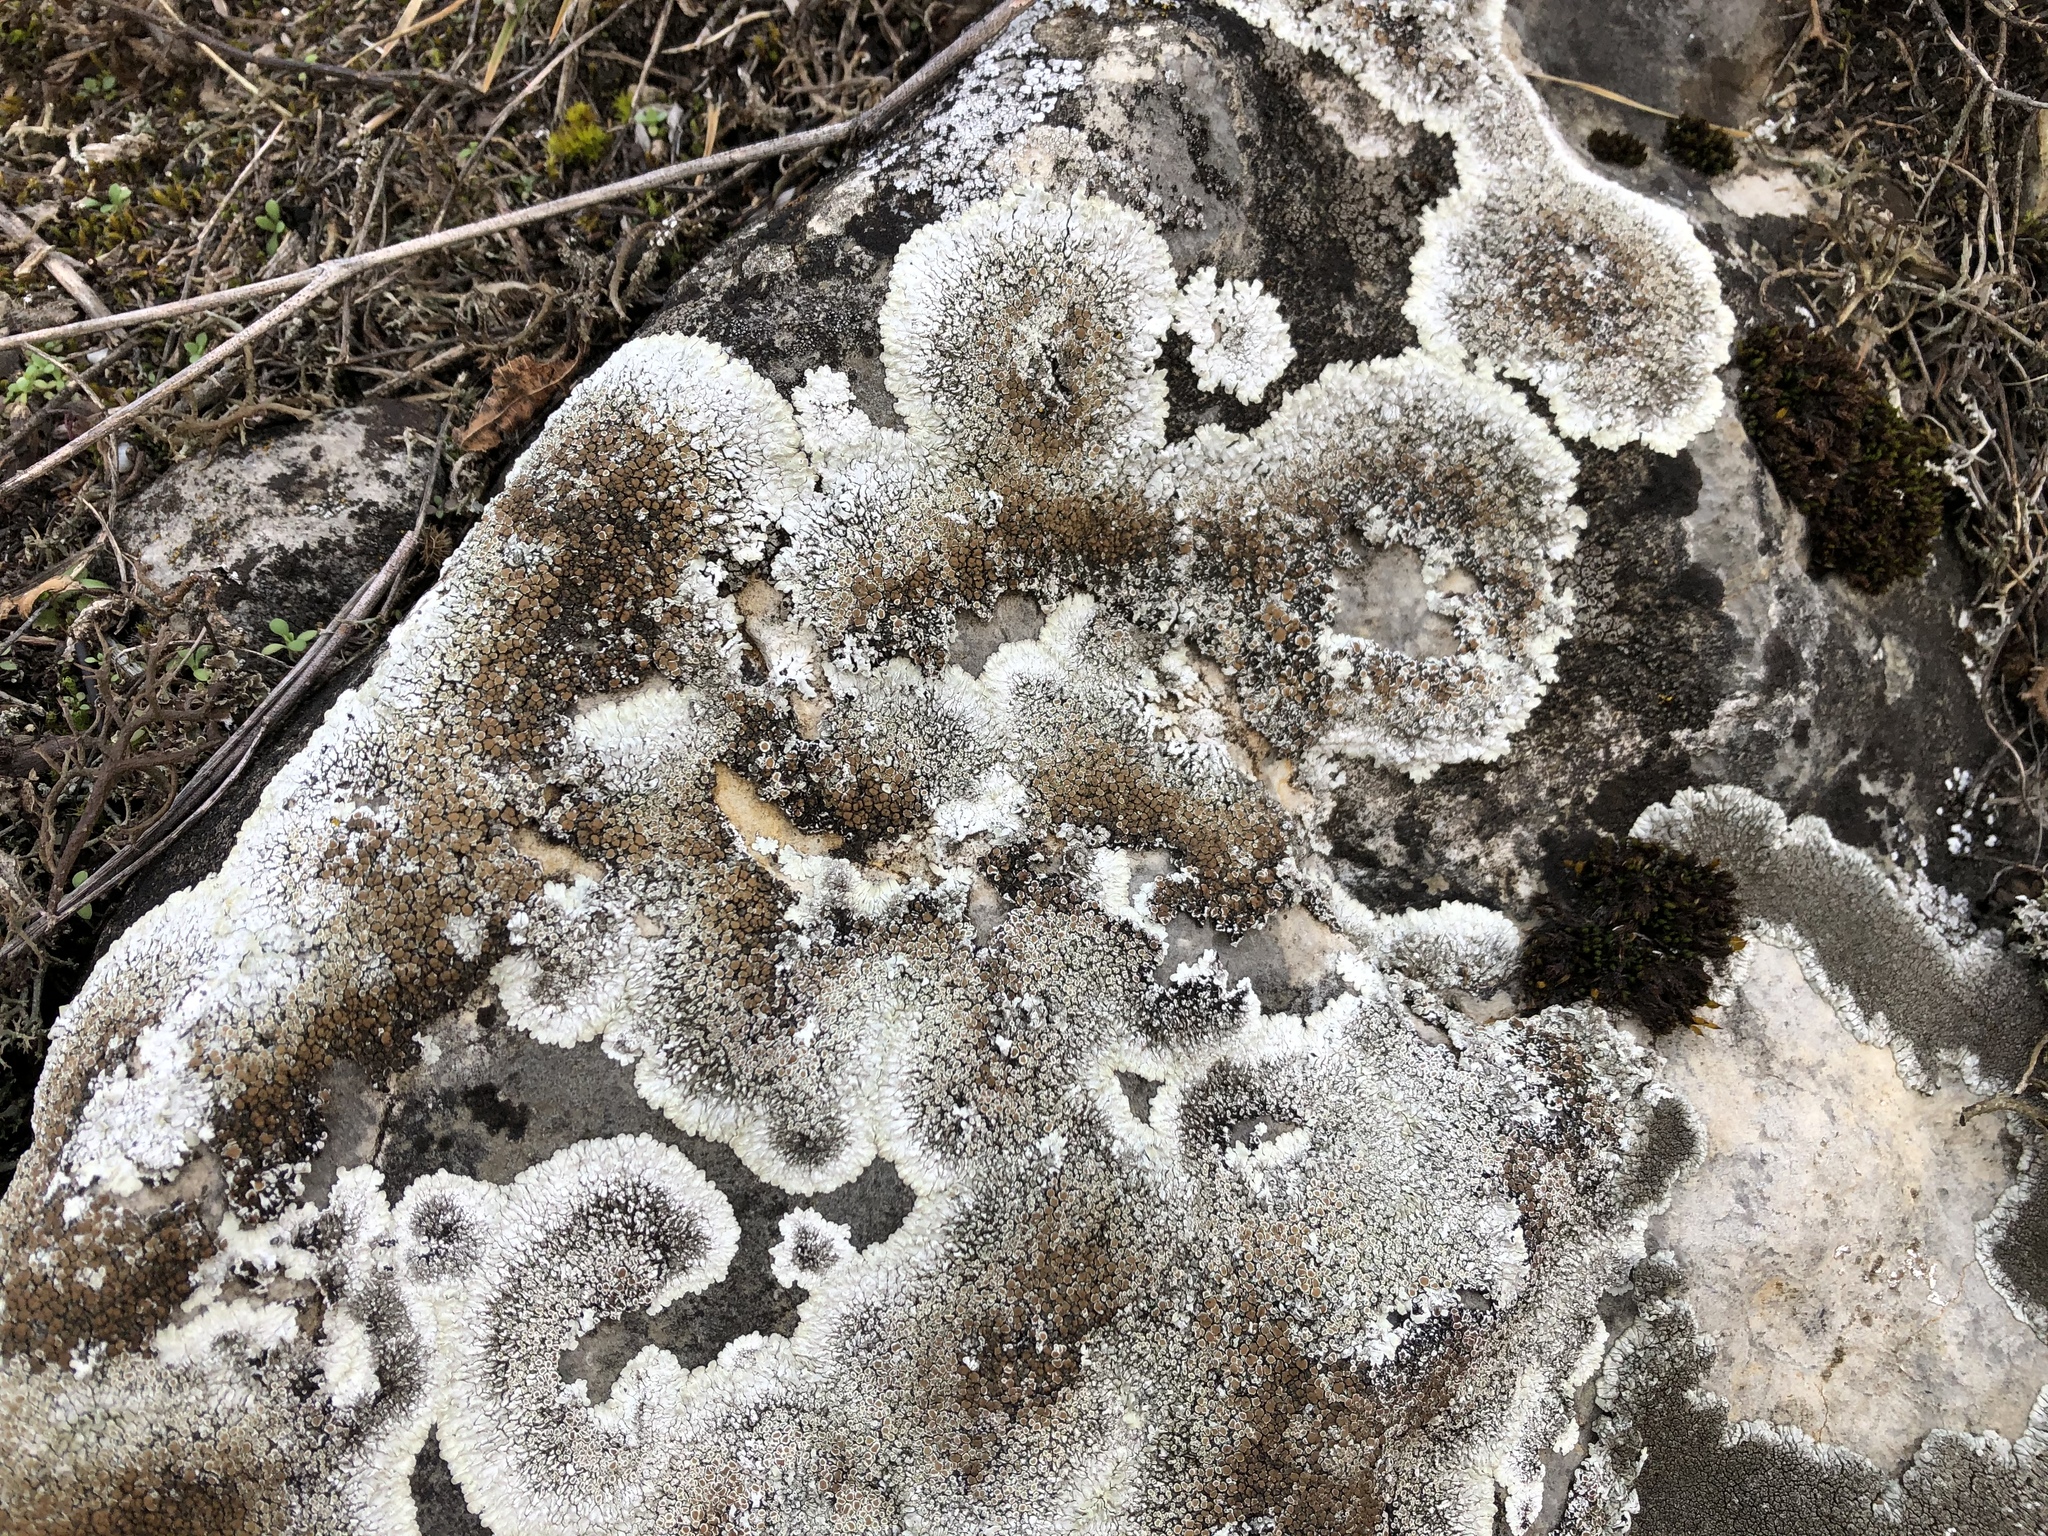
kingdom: Fungi
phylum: Ascomycota
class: Lecanoromycetes
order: Lecanorales
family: Lecanoraceae
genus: Protoparmeliopsis
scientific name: Protoparmeliopsis muralis
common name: Stonewall rim lichen
